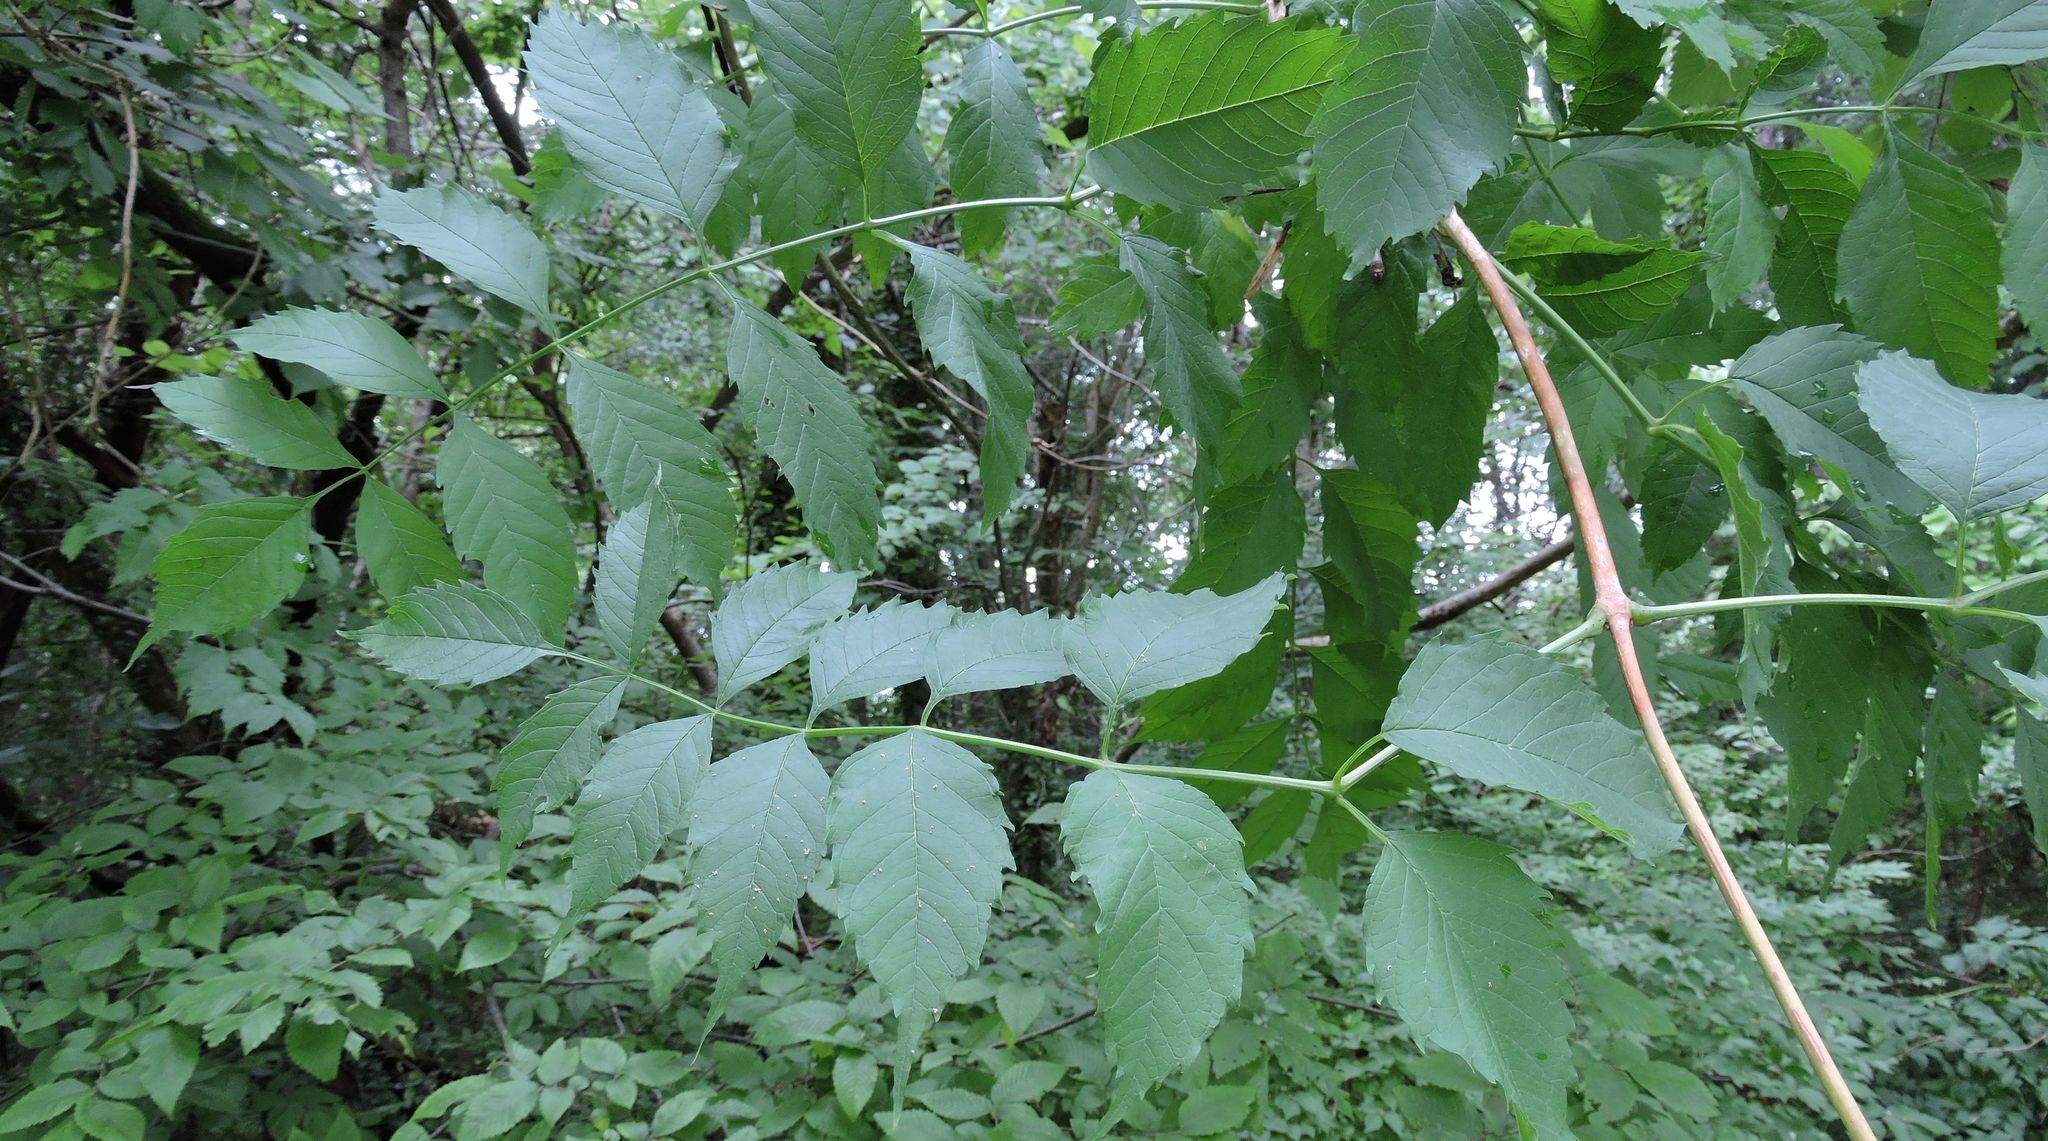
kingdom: Plantae
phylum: Tracheophyta
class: Magnoliopsida
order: Lamiales
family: Bignoniaceae
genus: Campsis
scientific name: Campsis radicans
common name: Trumpet-creeper
